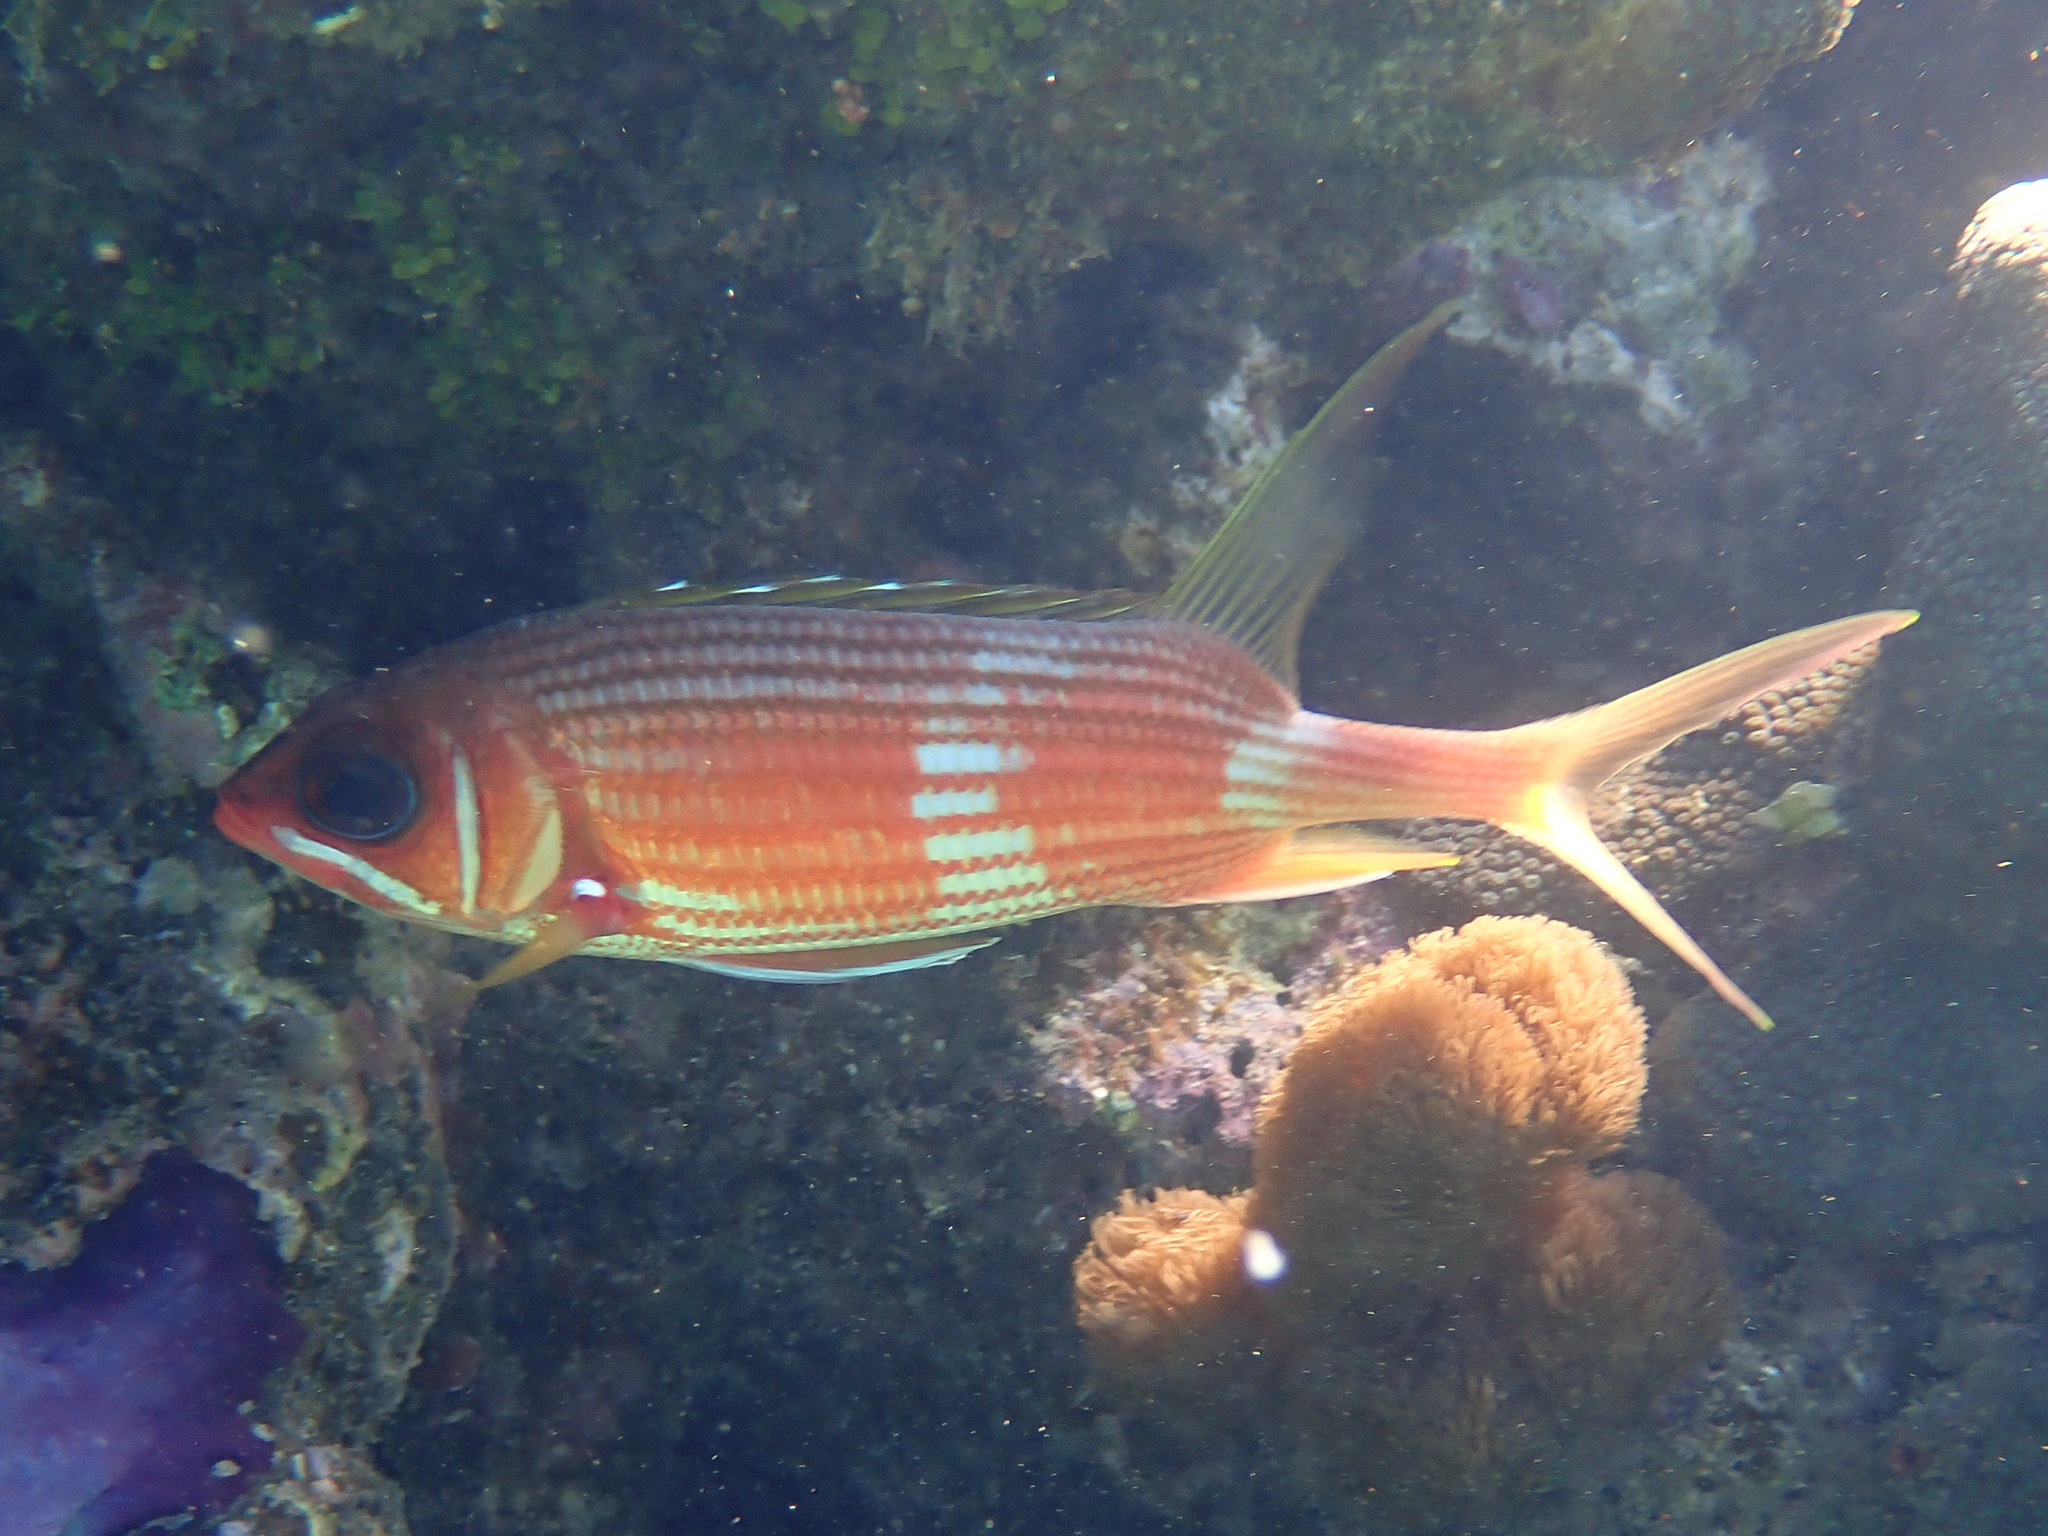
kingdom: Animalia
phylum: Chordata
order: Beryciformes
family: Holocentridae
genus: Holocentrus
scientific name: Holocentrus rufus
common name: Longspine squirrelfish
